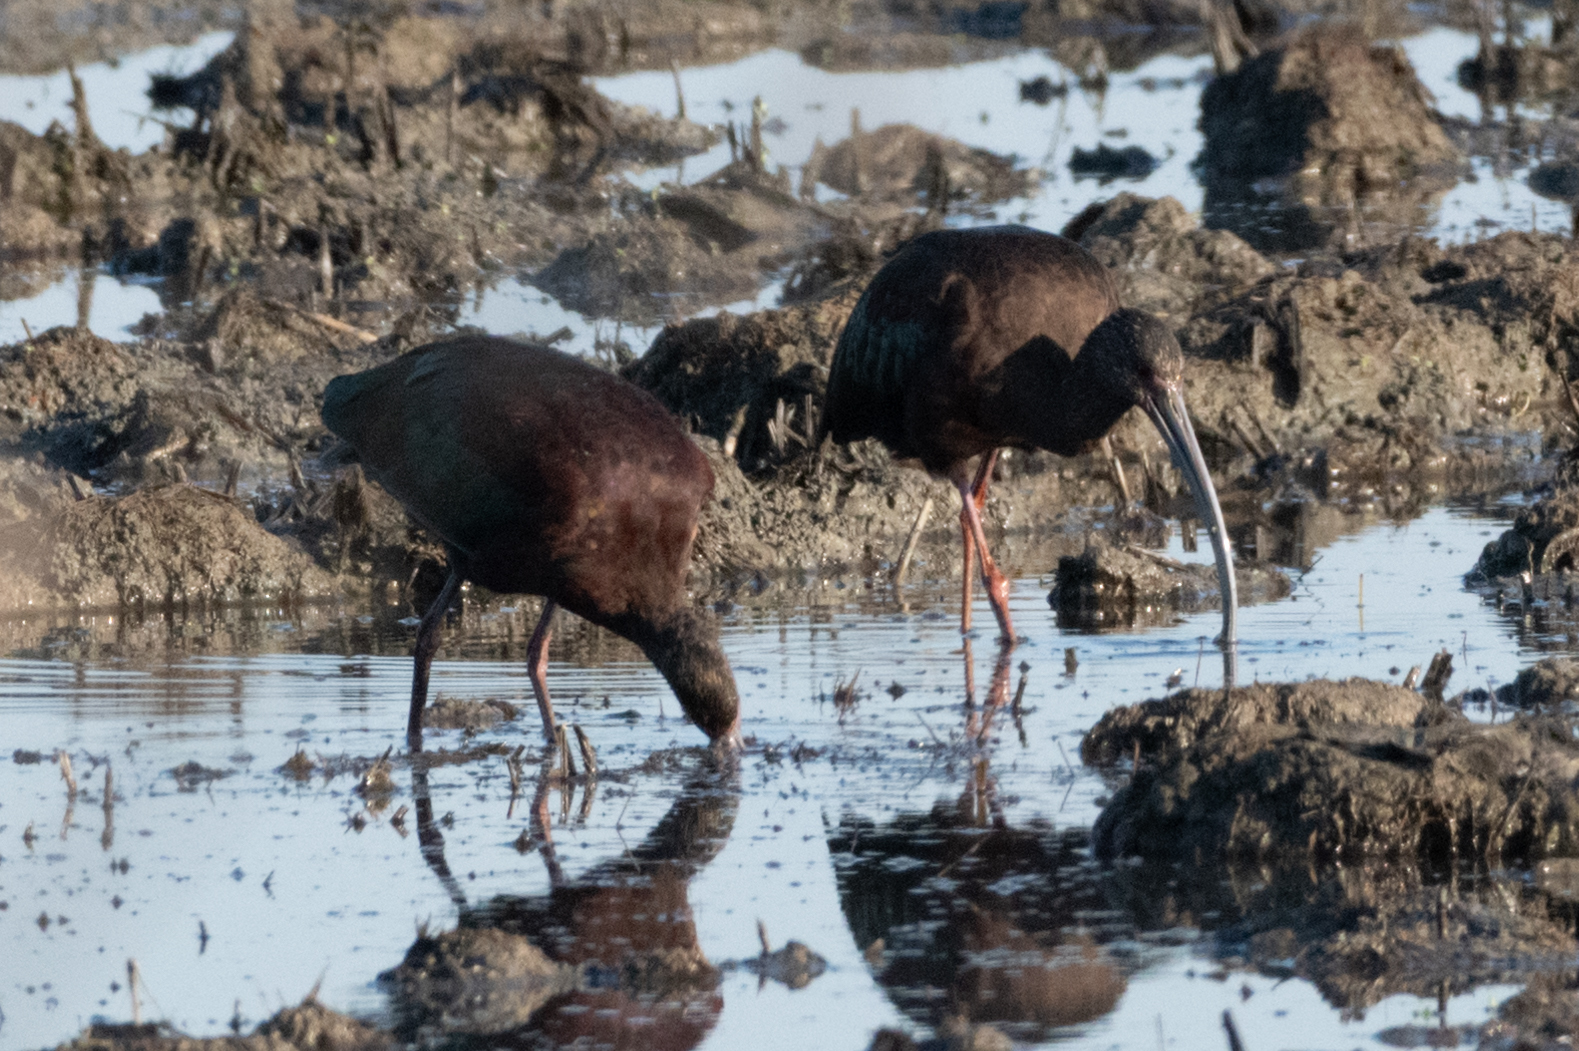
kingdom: Animalia
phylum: Chordata
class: Aves
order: Pelecaniformes
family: Threskiornithidae
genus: Plegadis
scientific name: Plegadis chihi
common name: White-faced ibis
